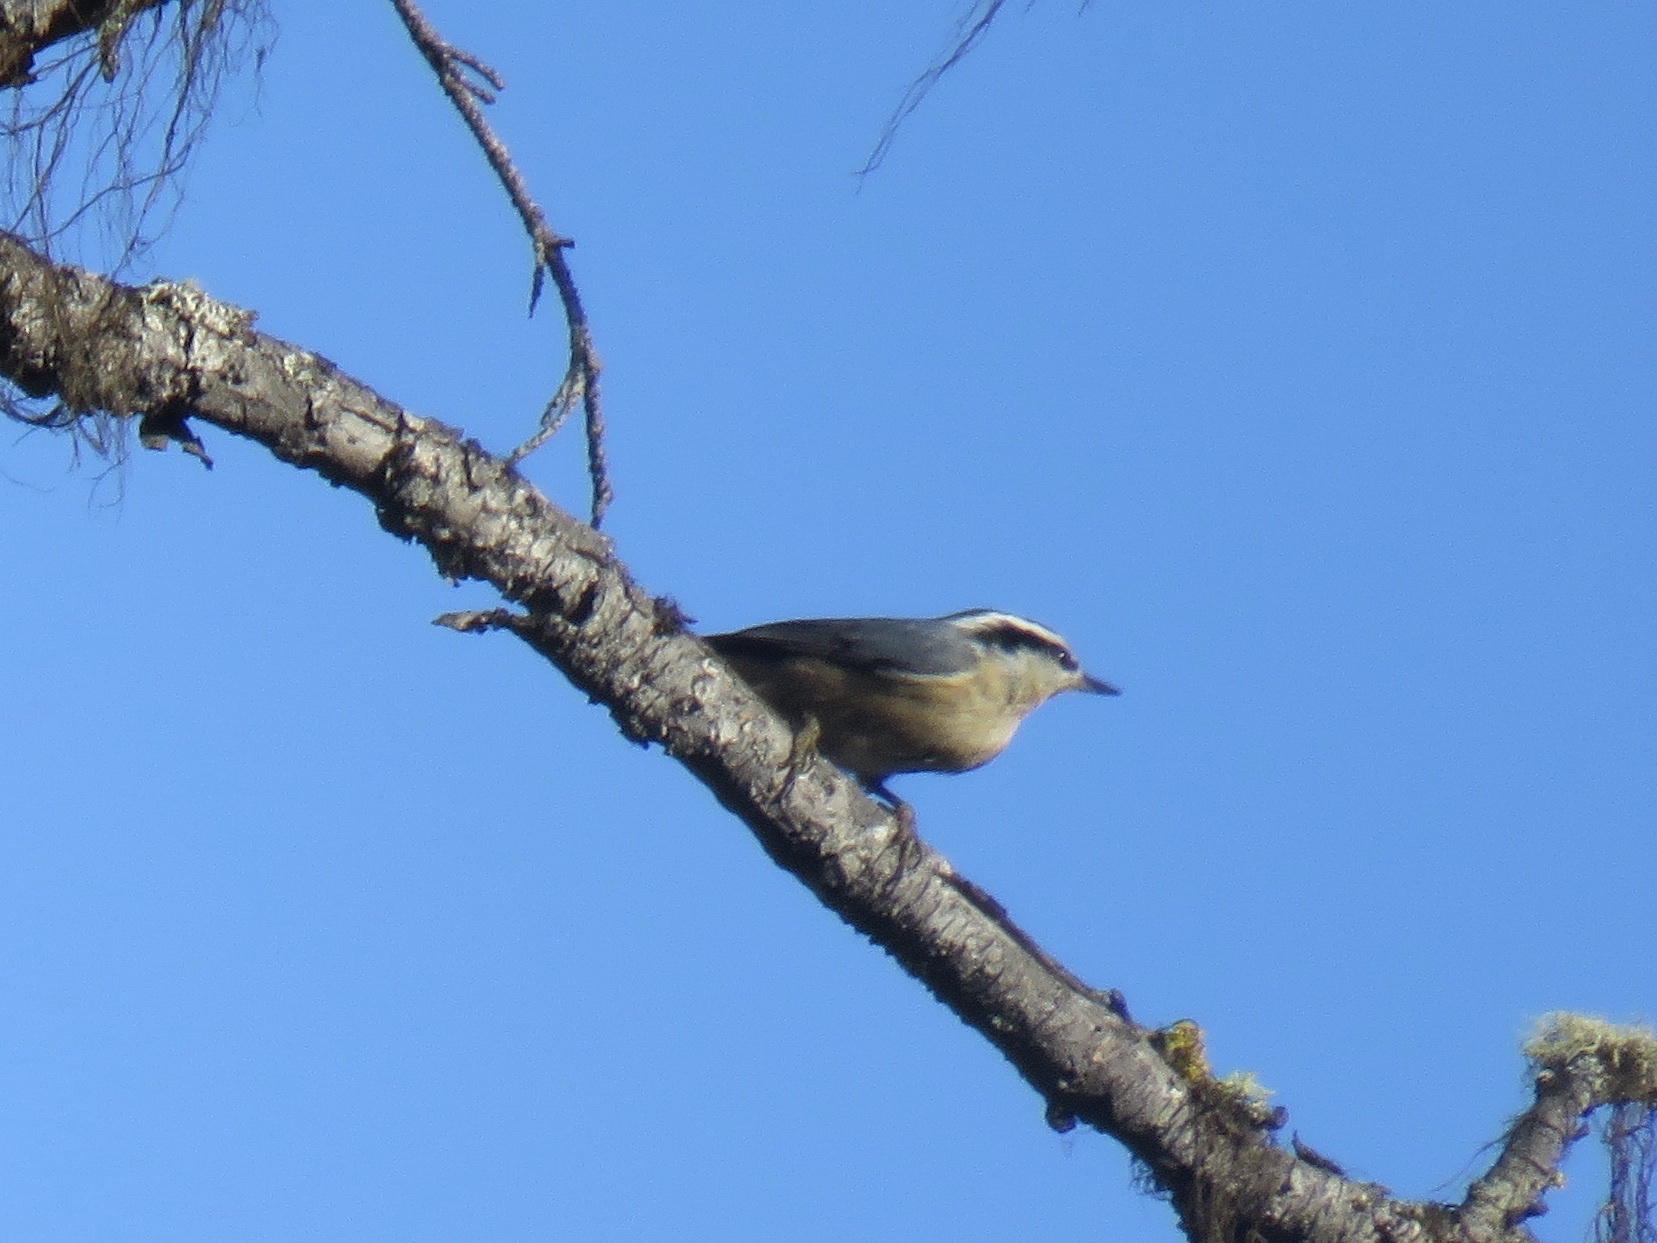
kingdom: Animalia
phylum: Chordata
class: Aves
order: Passeriformes
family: Sittidae
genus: Sitta
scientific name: Sitta canadensis
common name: Red-breasted nuthatch
